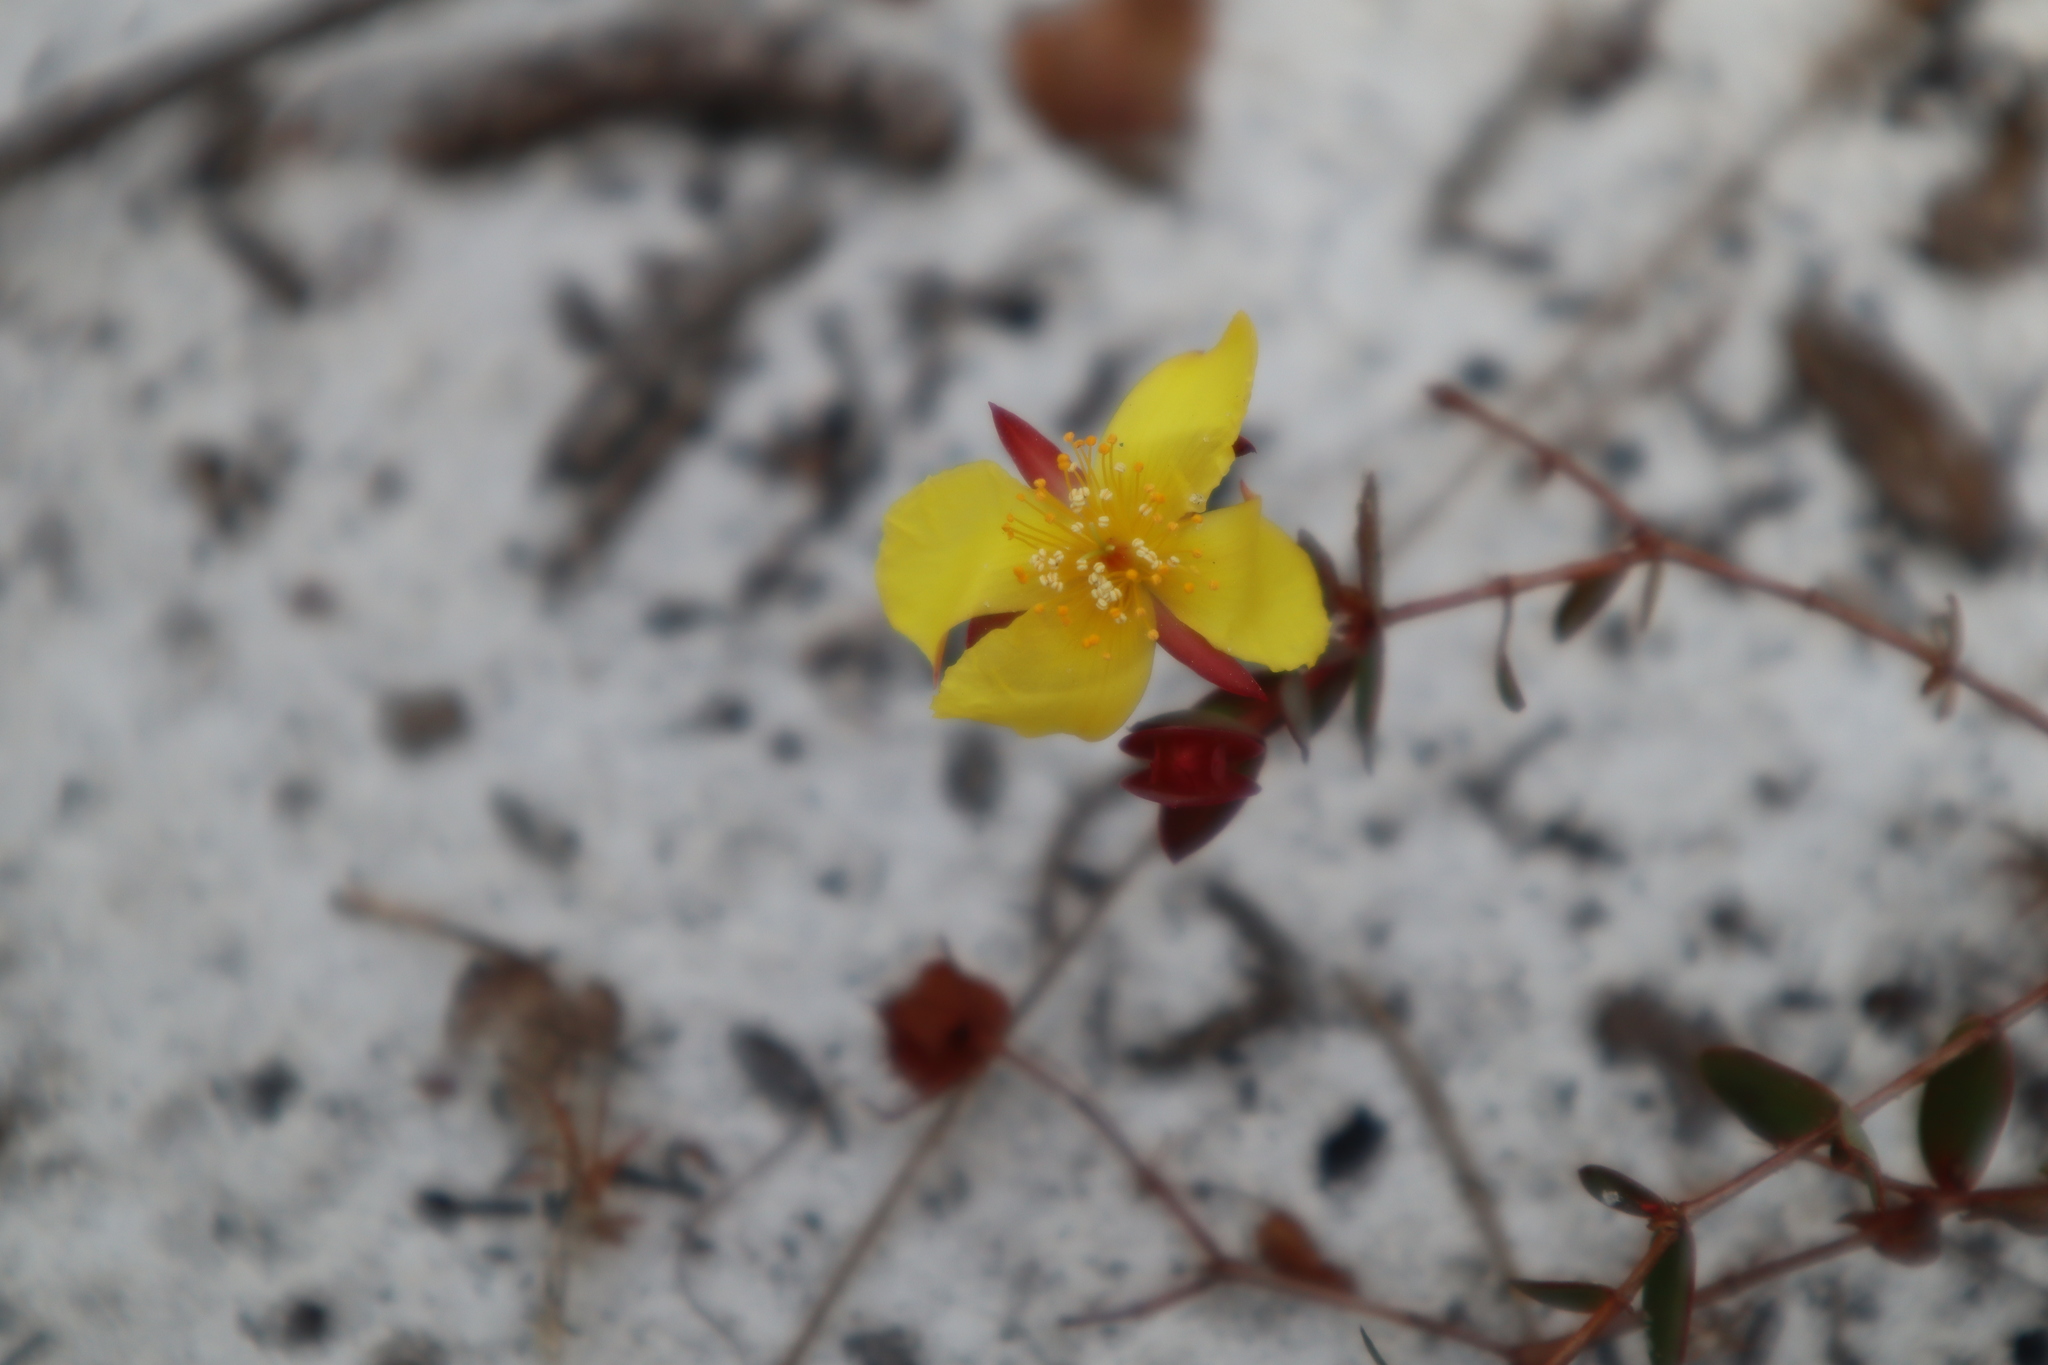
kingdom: Plantae
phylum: Tracheophyta
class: Magnoliopsida
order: Malpighiales
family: Hypericaceae
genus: Hypericum
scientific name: Hypericum tetrapetalum
